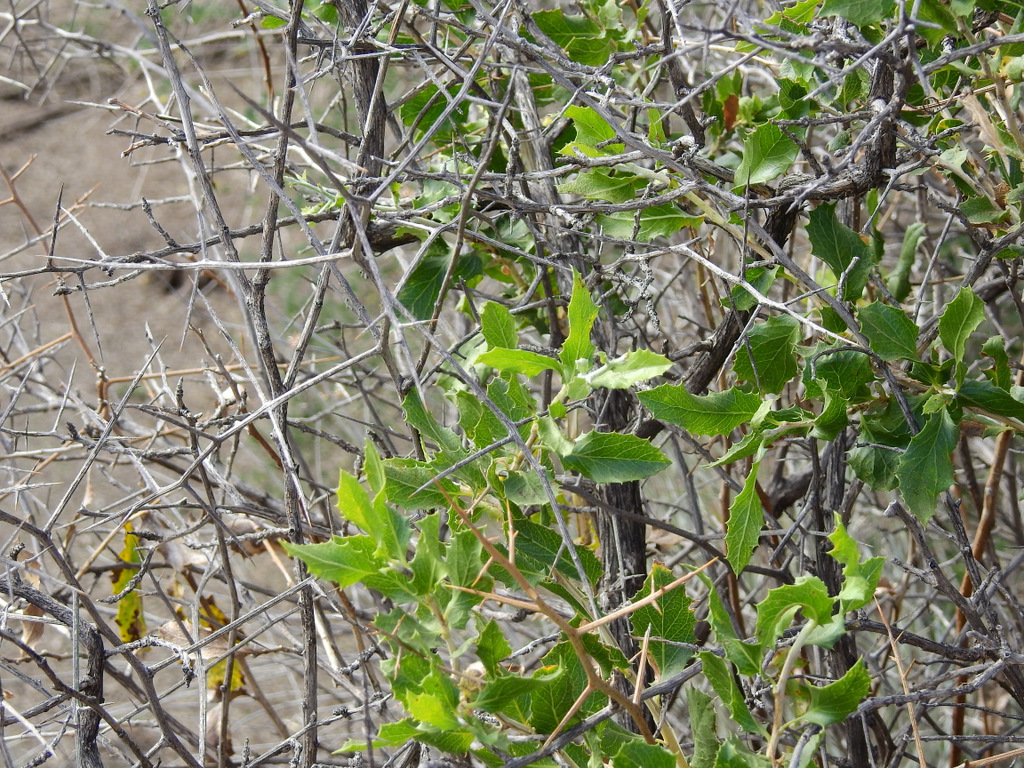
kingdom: Plantae
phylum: Tracheophyta
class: Magnoliopsida
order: Asterales
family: Asteraceae
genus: Proustia
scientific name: Proustia cuneifolia
